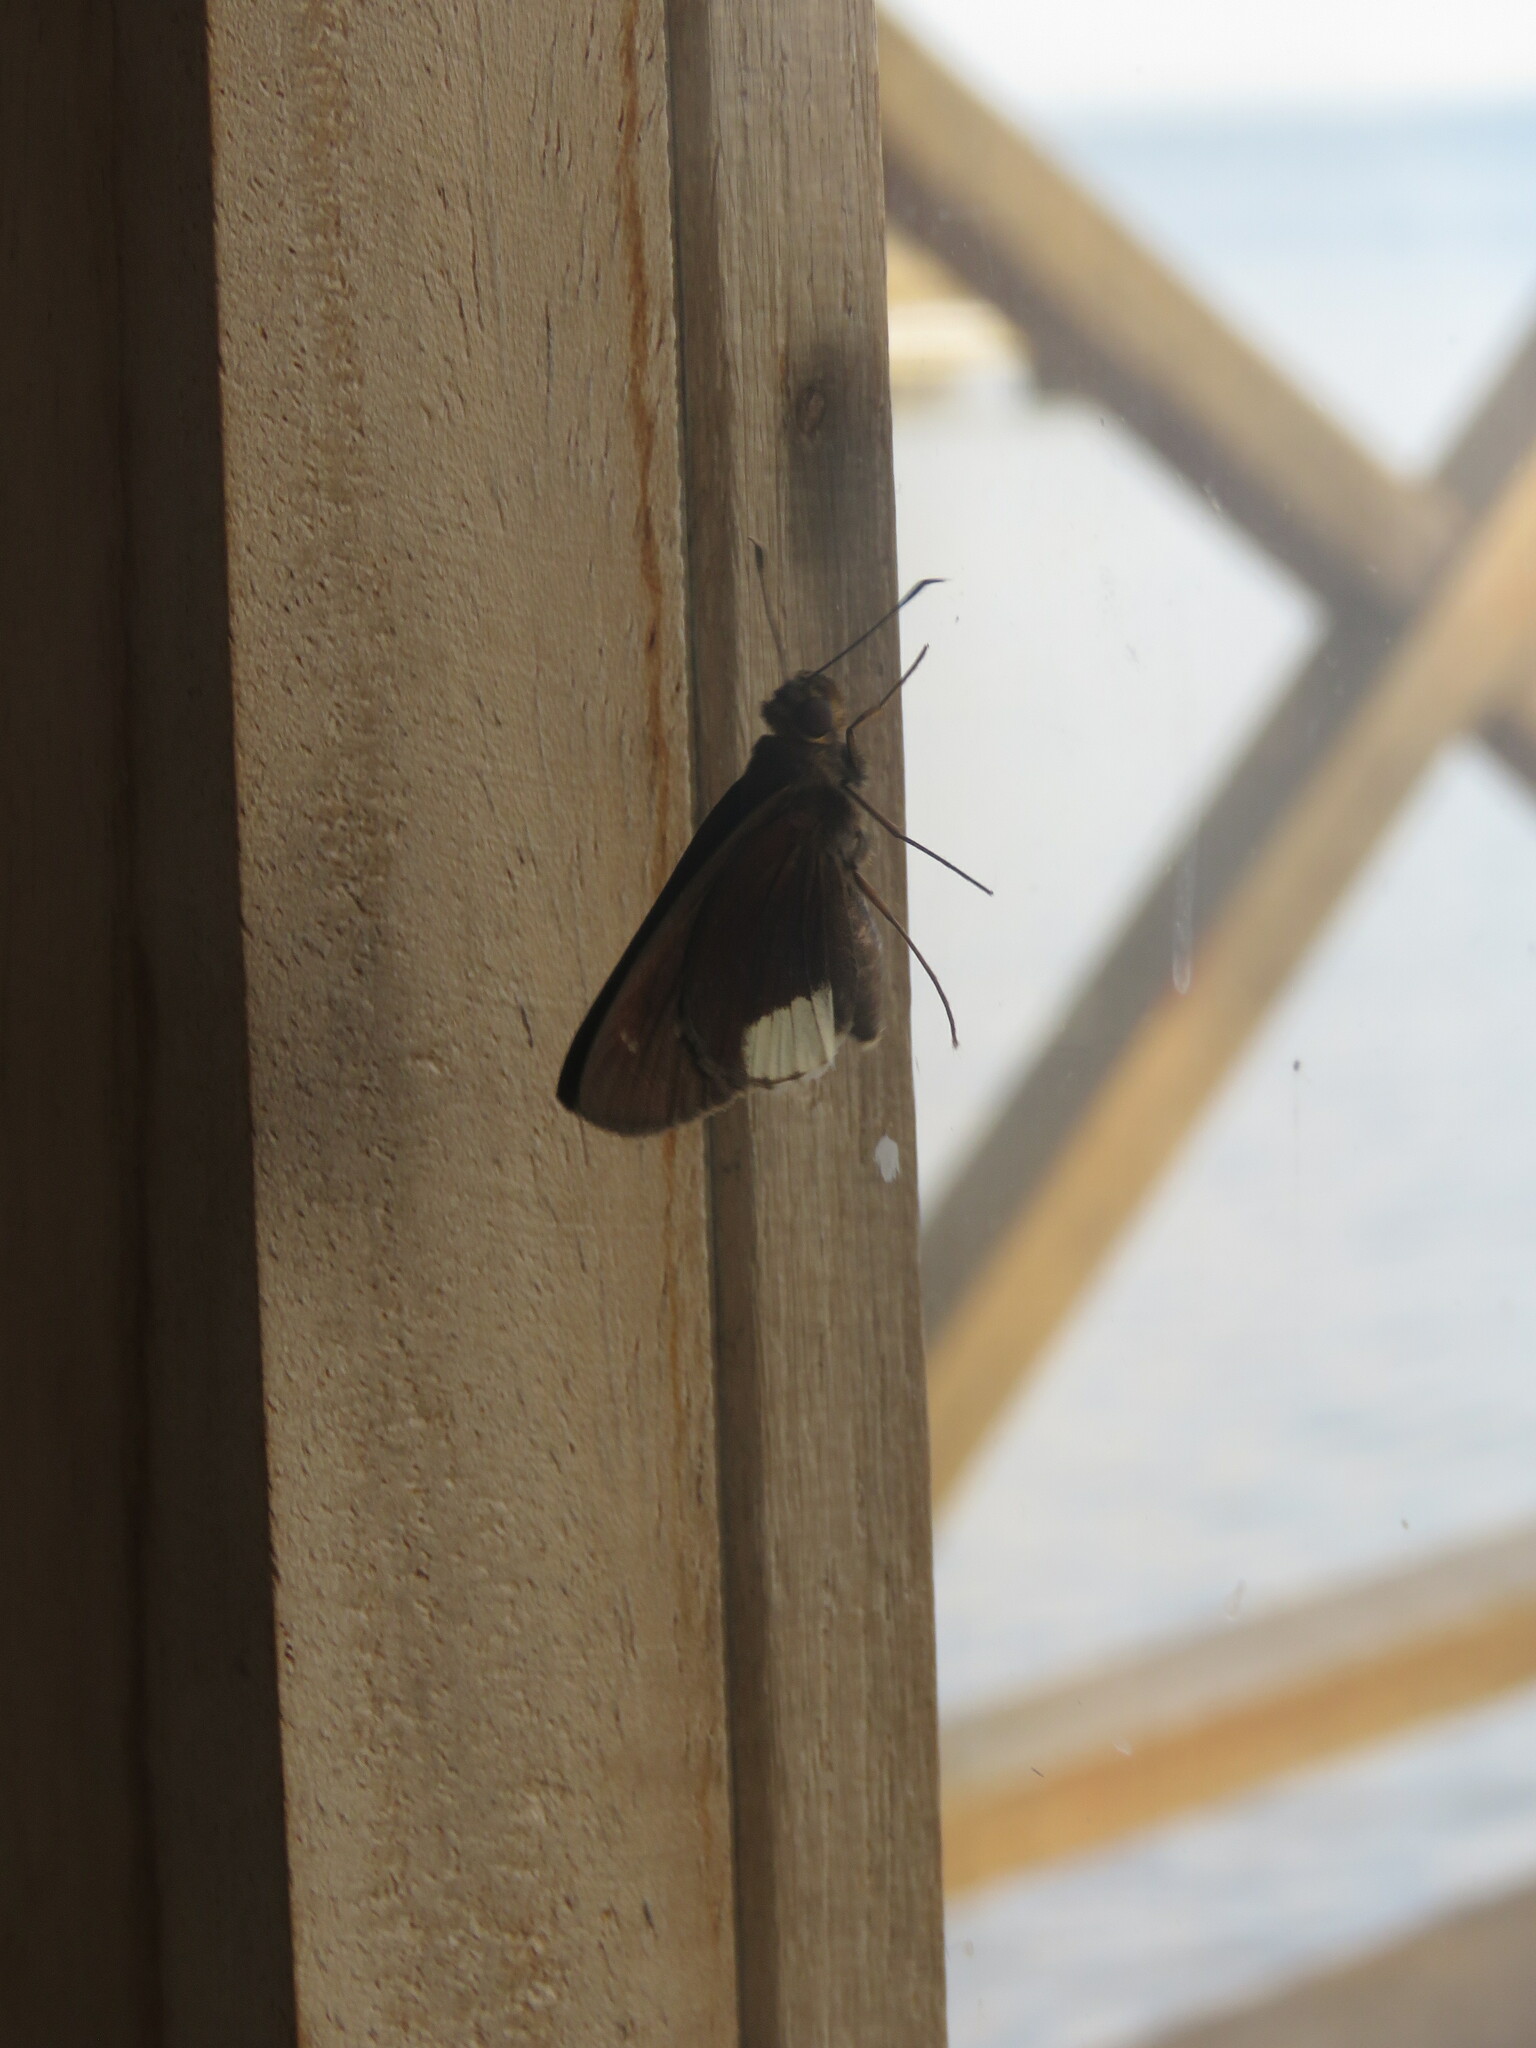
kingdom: Animalia
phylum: Arthropoda
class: Insecta
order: Lepidoptera
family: Hesperiidae
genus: Cobalus
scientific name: Cobalus virbius
